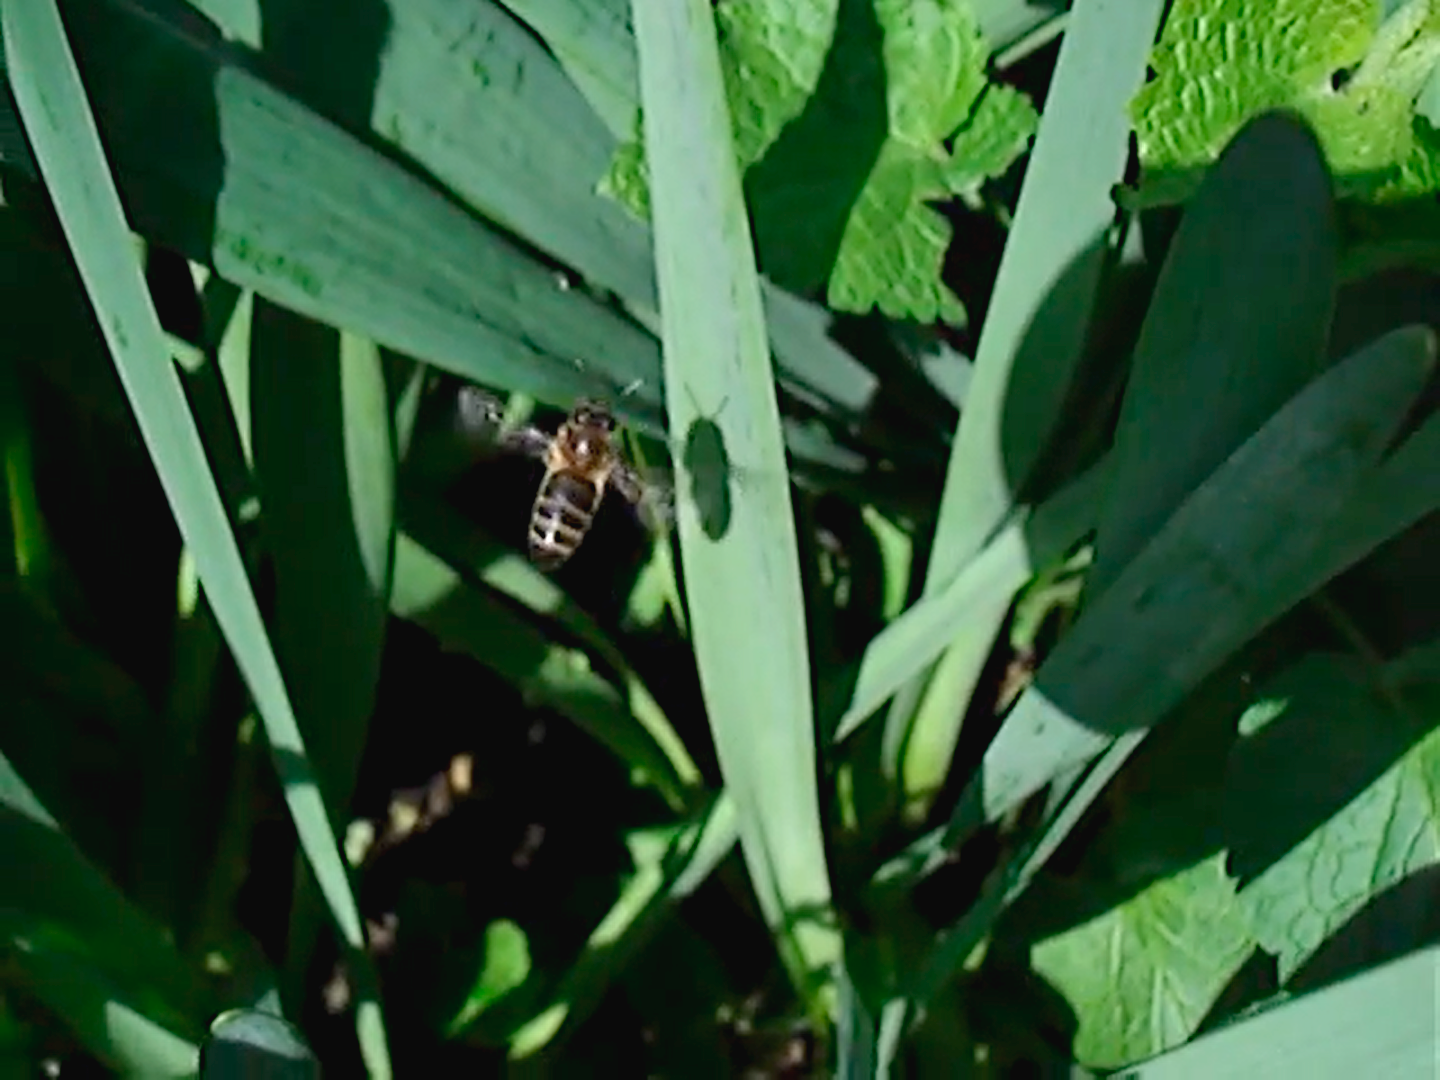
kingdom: Animalia
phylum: Arthropoda
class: Insecta
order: Hymenoptera
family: Apidae
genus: Apis
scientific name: Apis mellifera
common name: Honey bee
